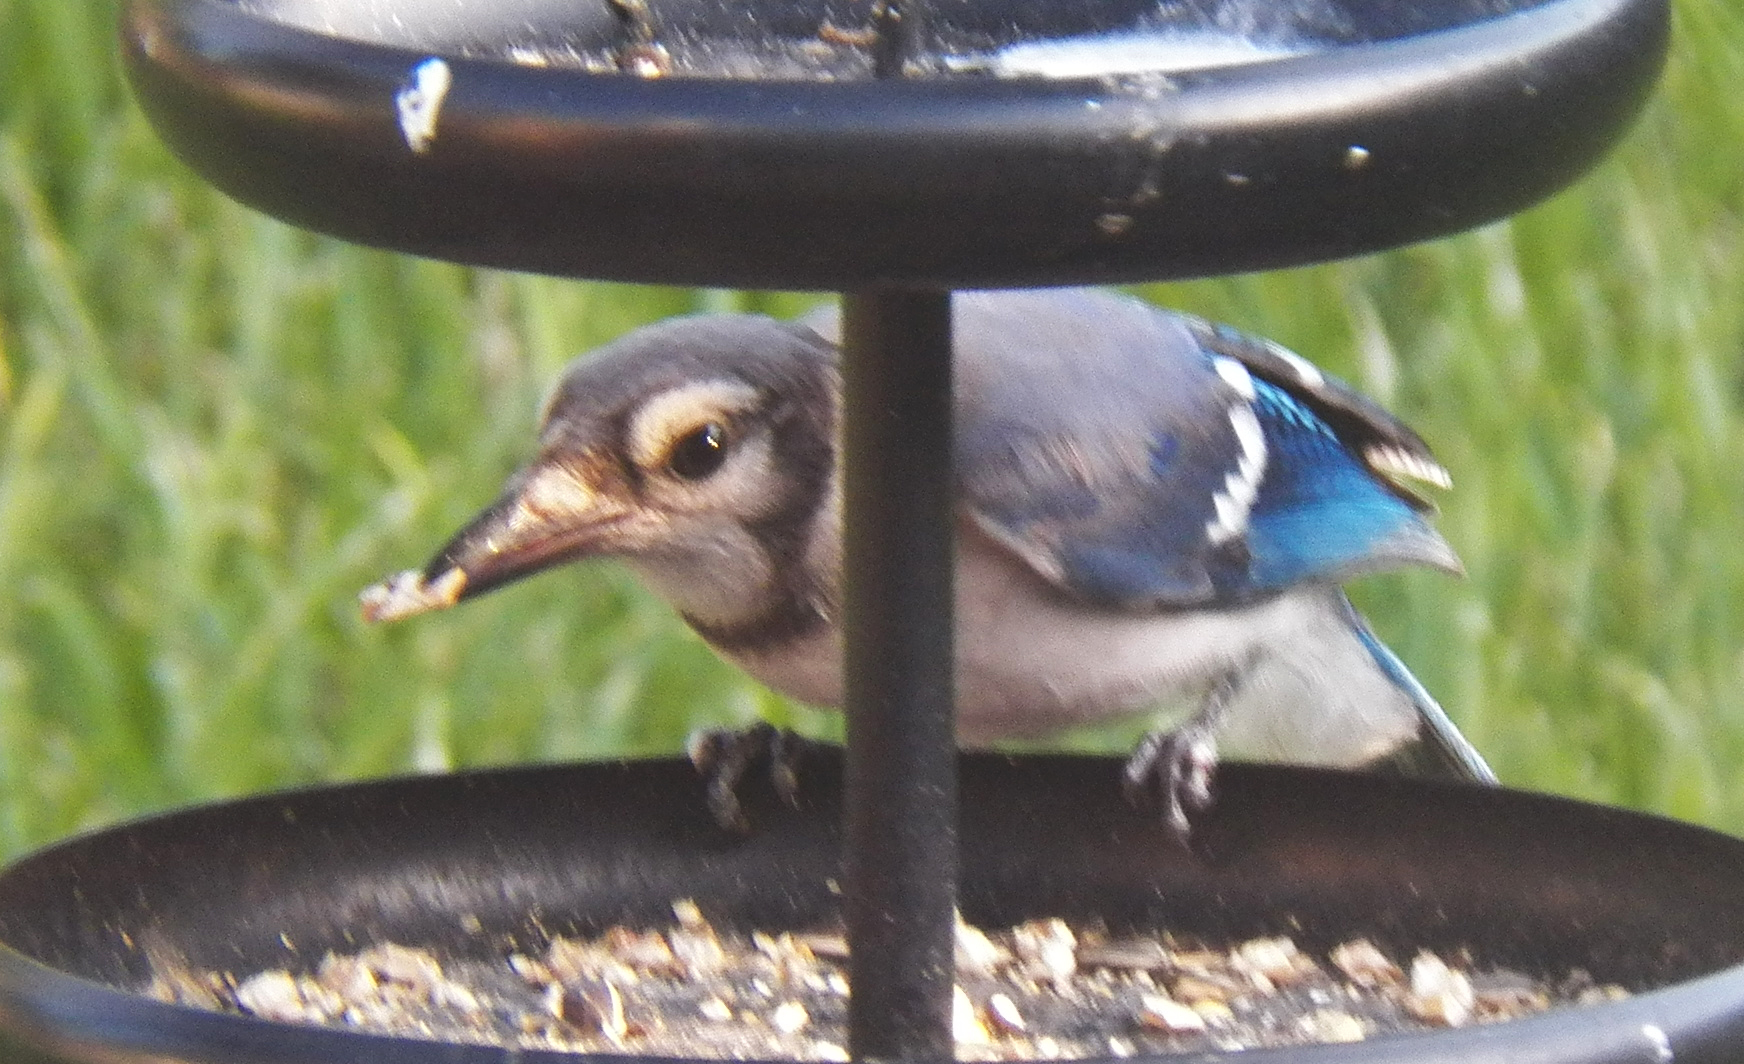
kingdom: Animalia
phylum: Chordata
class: Aves
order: Passeriformes
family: Corvidae
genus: Cyanocitta
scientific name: Cyanocitta cristata
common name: Blue jay
